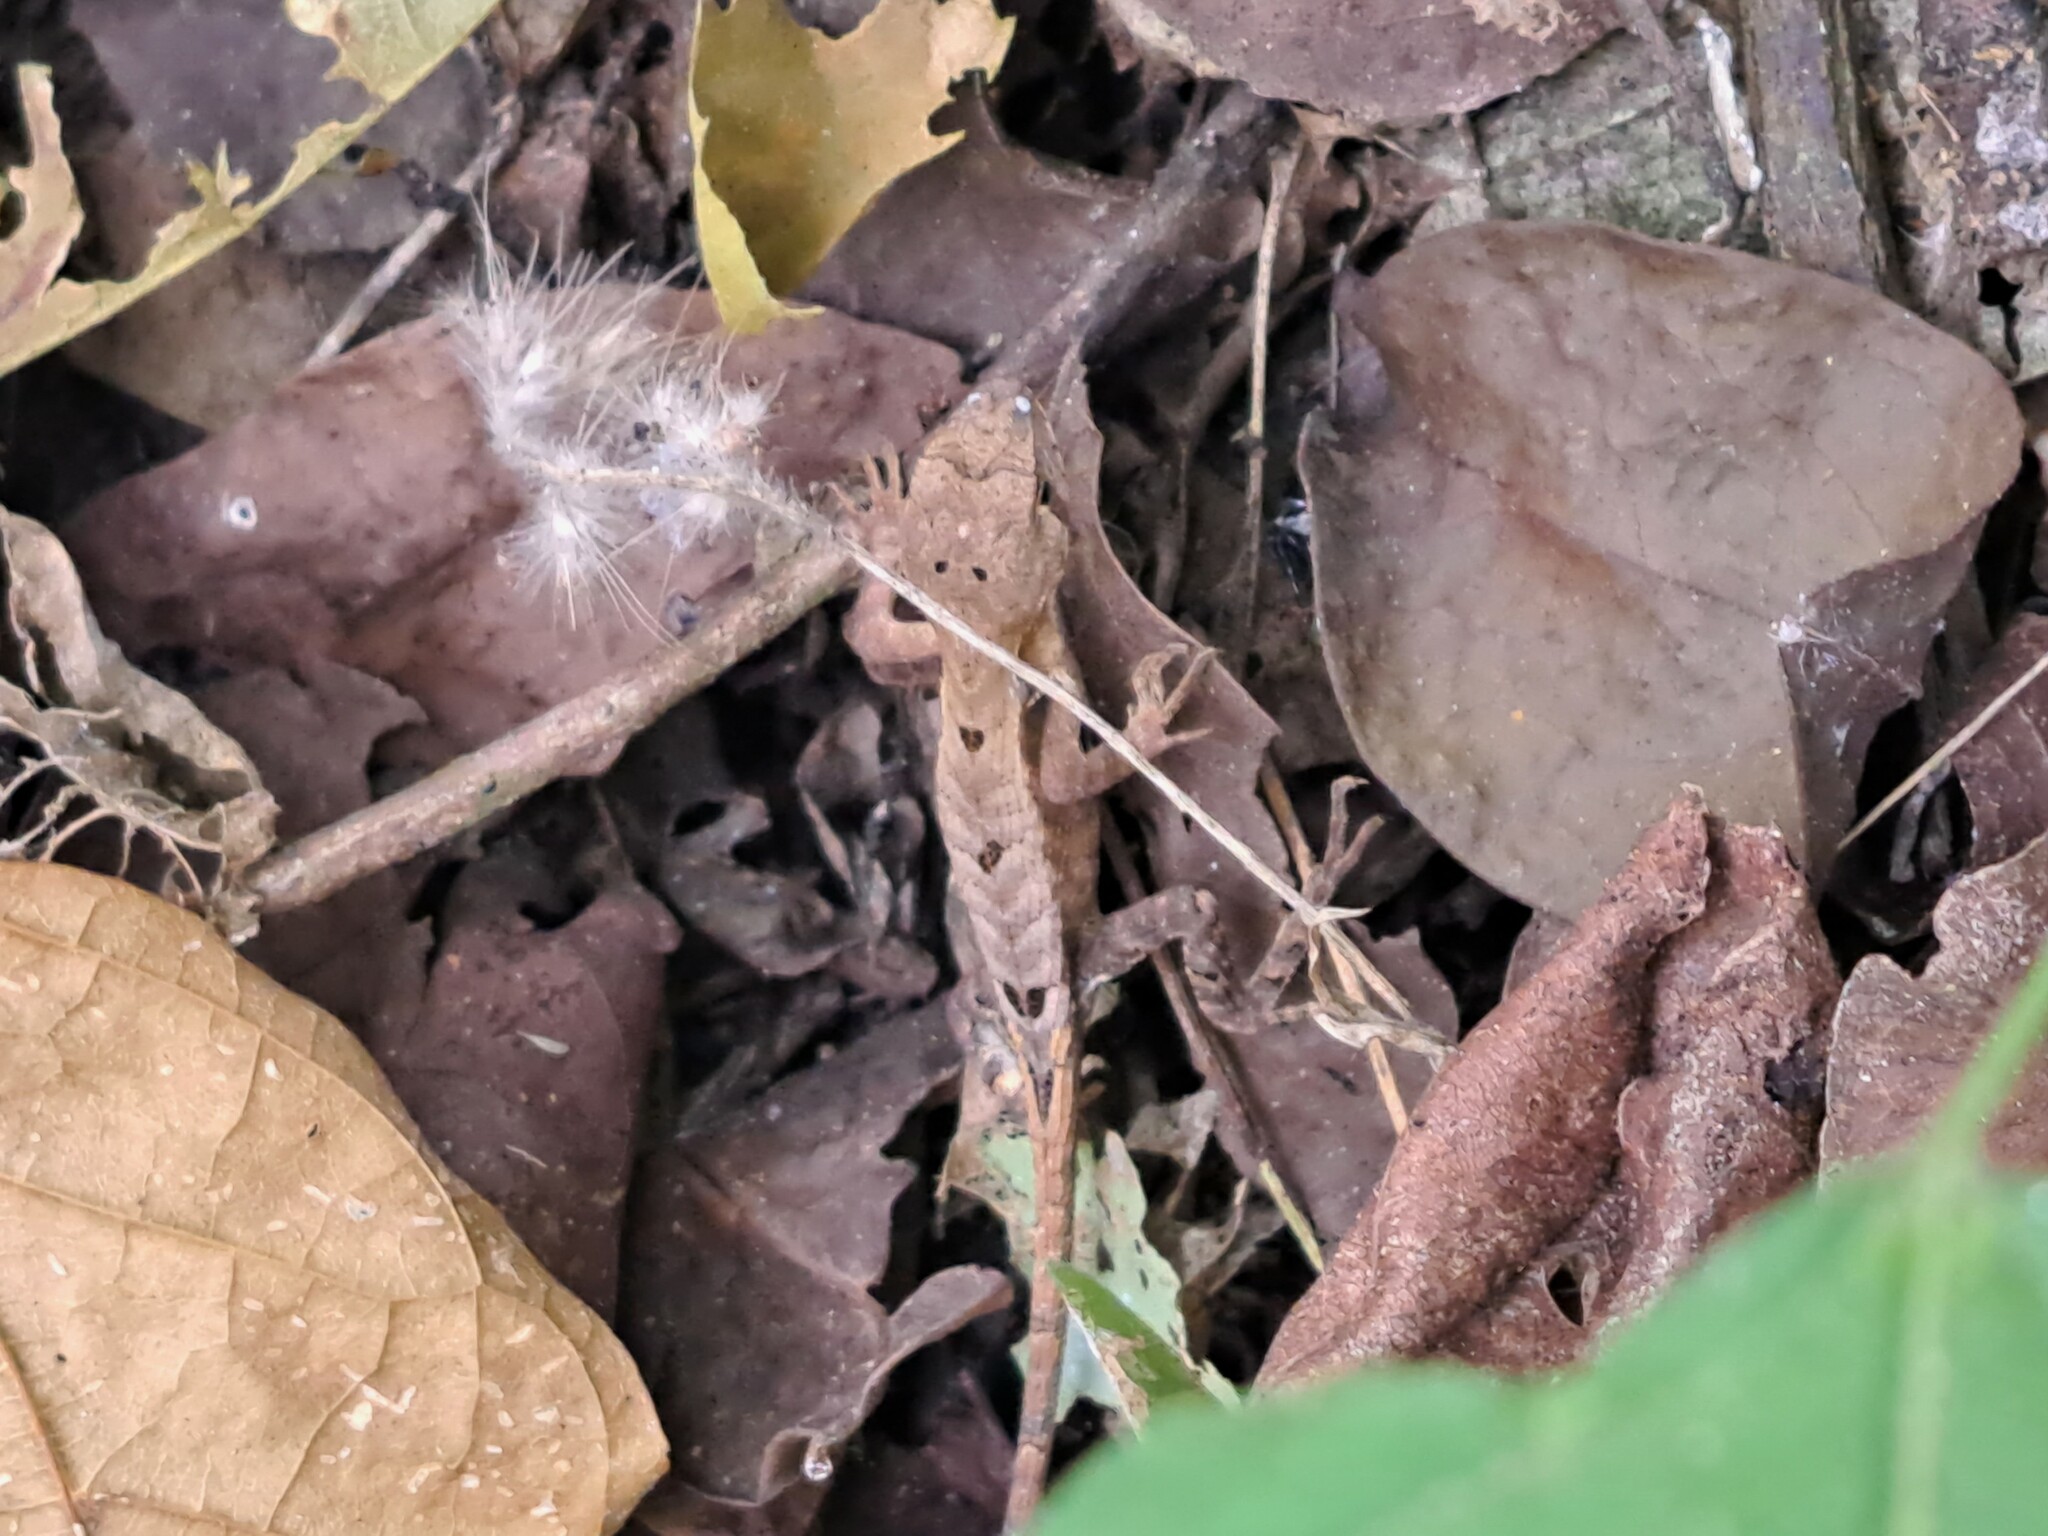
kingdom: Animalia
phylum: Chordata
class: Squamata
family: Tropiduridae
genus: Stenocercus
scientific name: Stenocercus iridescens
